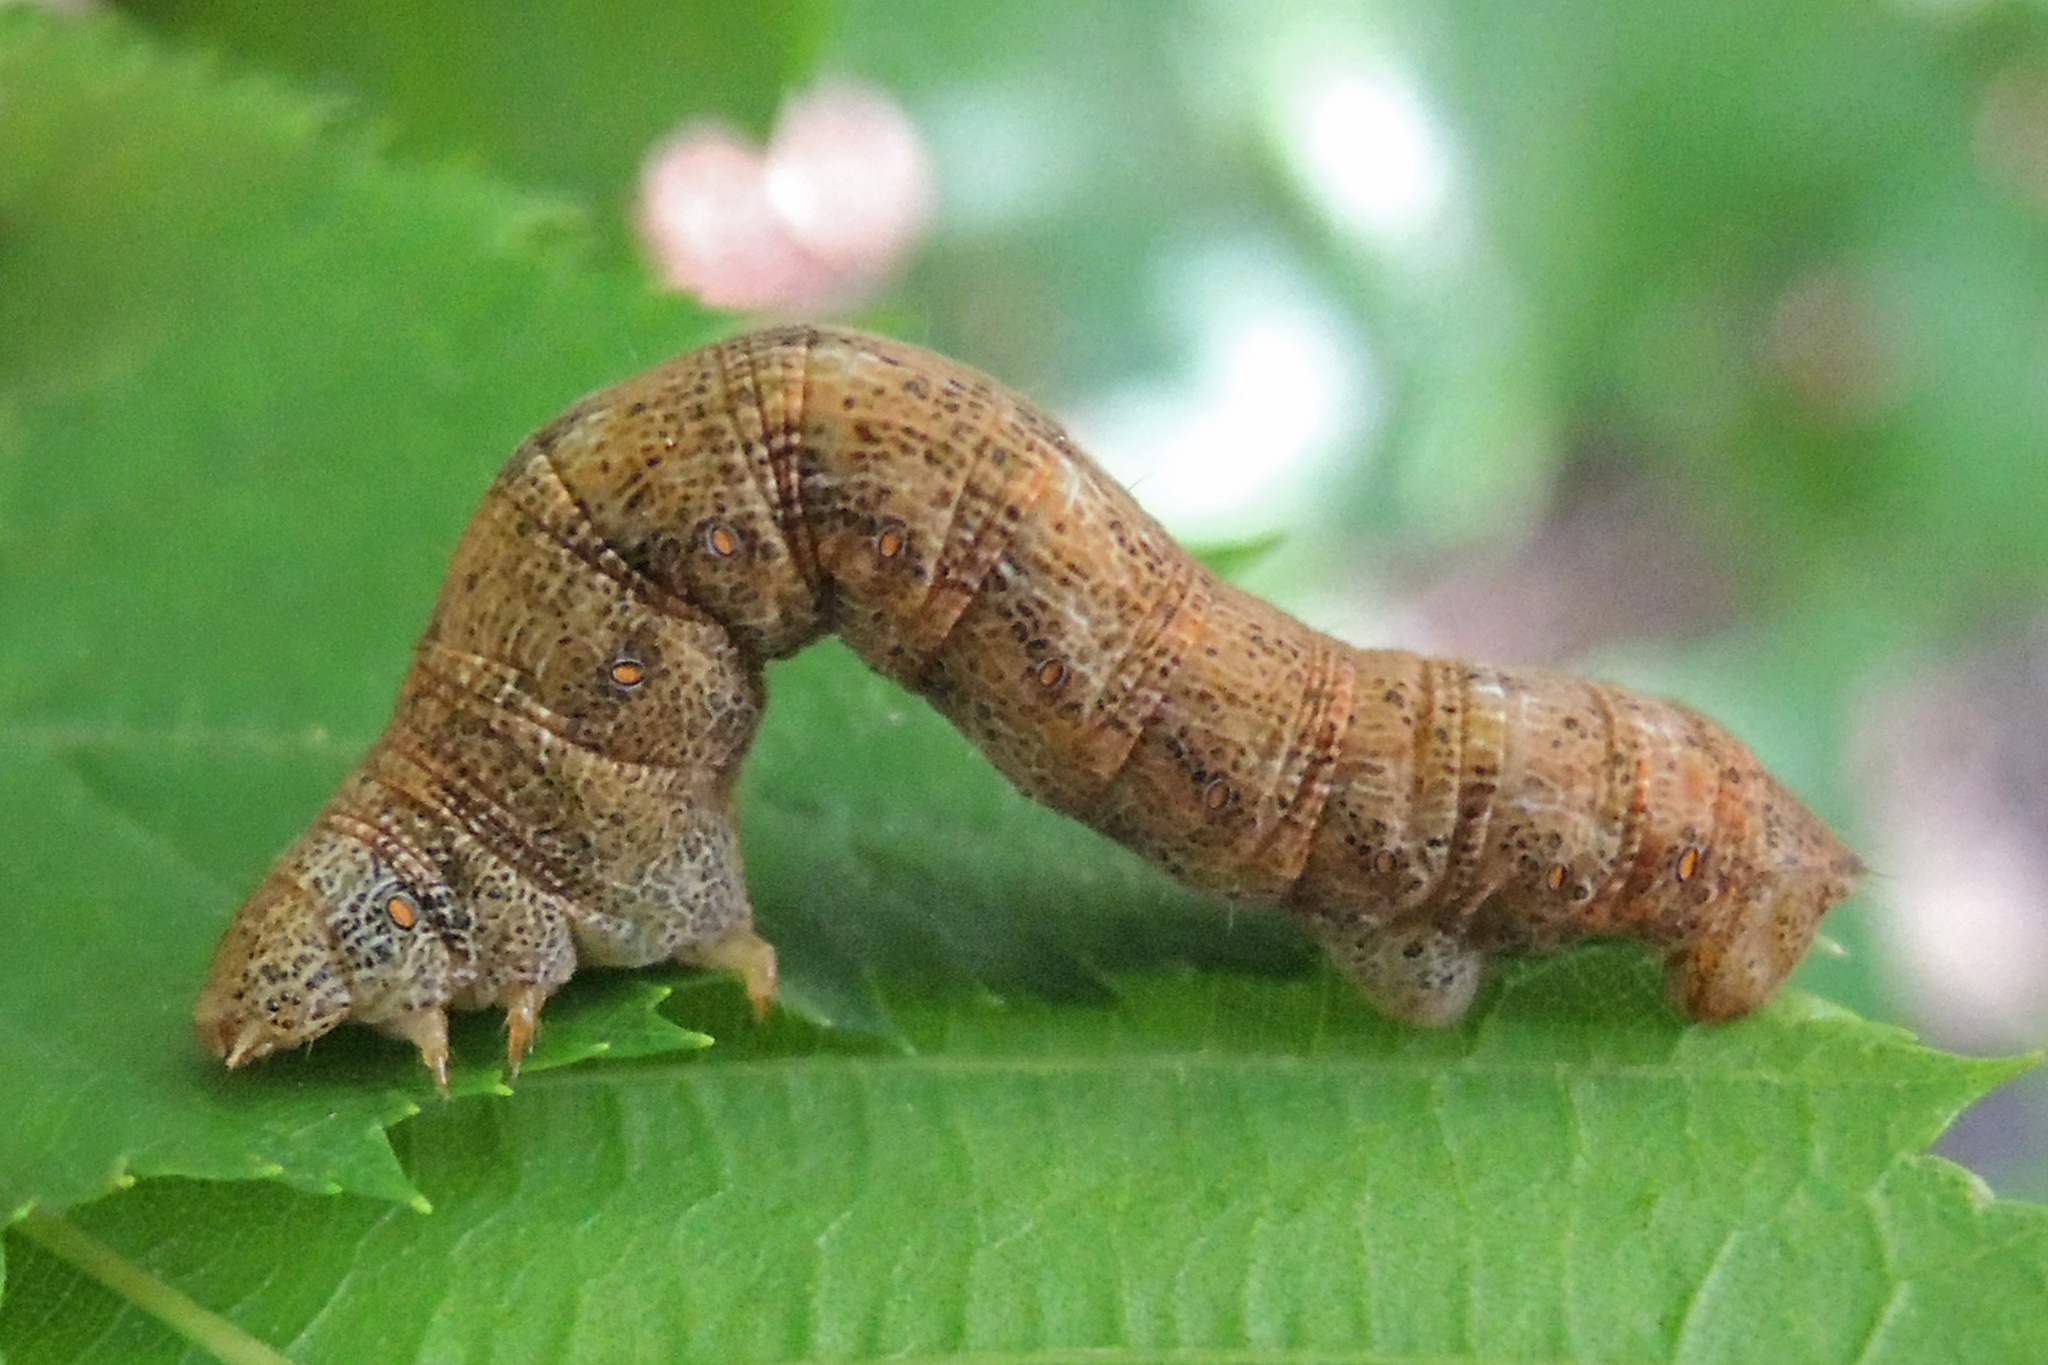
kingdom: Animalia
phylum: Arthropoda
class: Insecta
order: Lepidoptera
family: Geometridae
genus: Epimecis
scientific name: Epimecis hortaria
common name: Tulip-tree beauty
